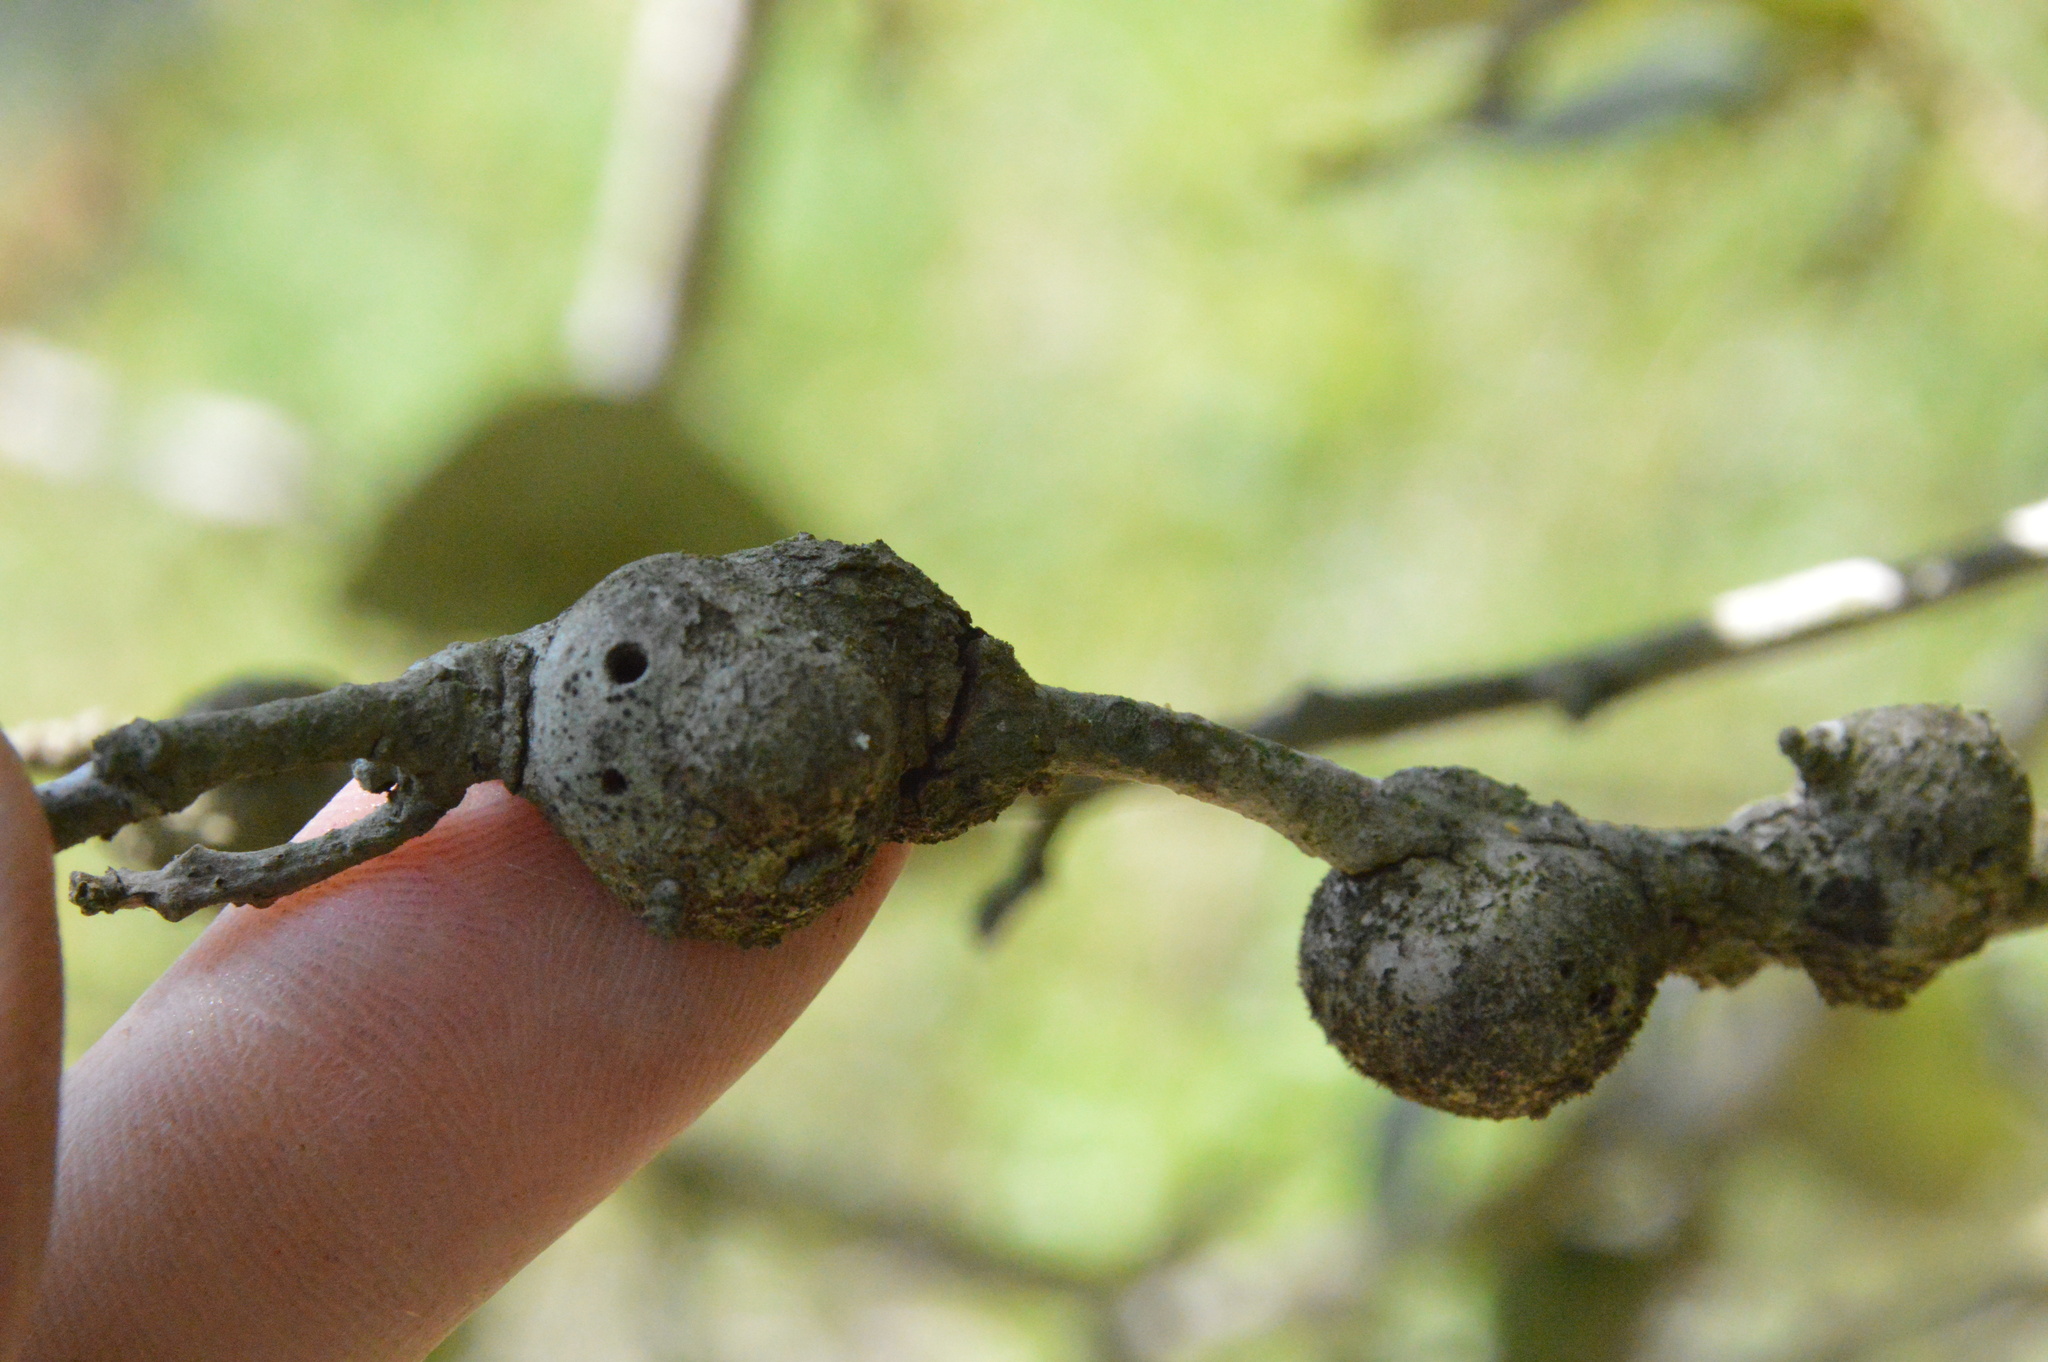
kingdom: Animalia
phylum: Arthropoda
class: Insecta
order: Hymenoptera
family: Cynipidae
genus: Callirhytis
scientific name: Callirhytis
